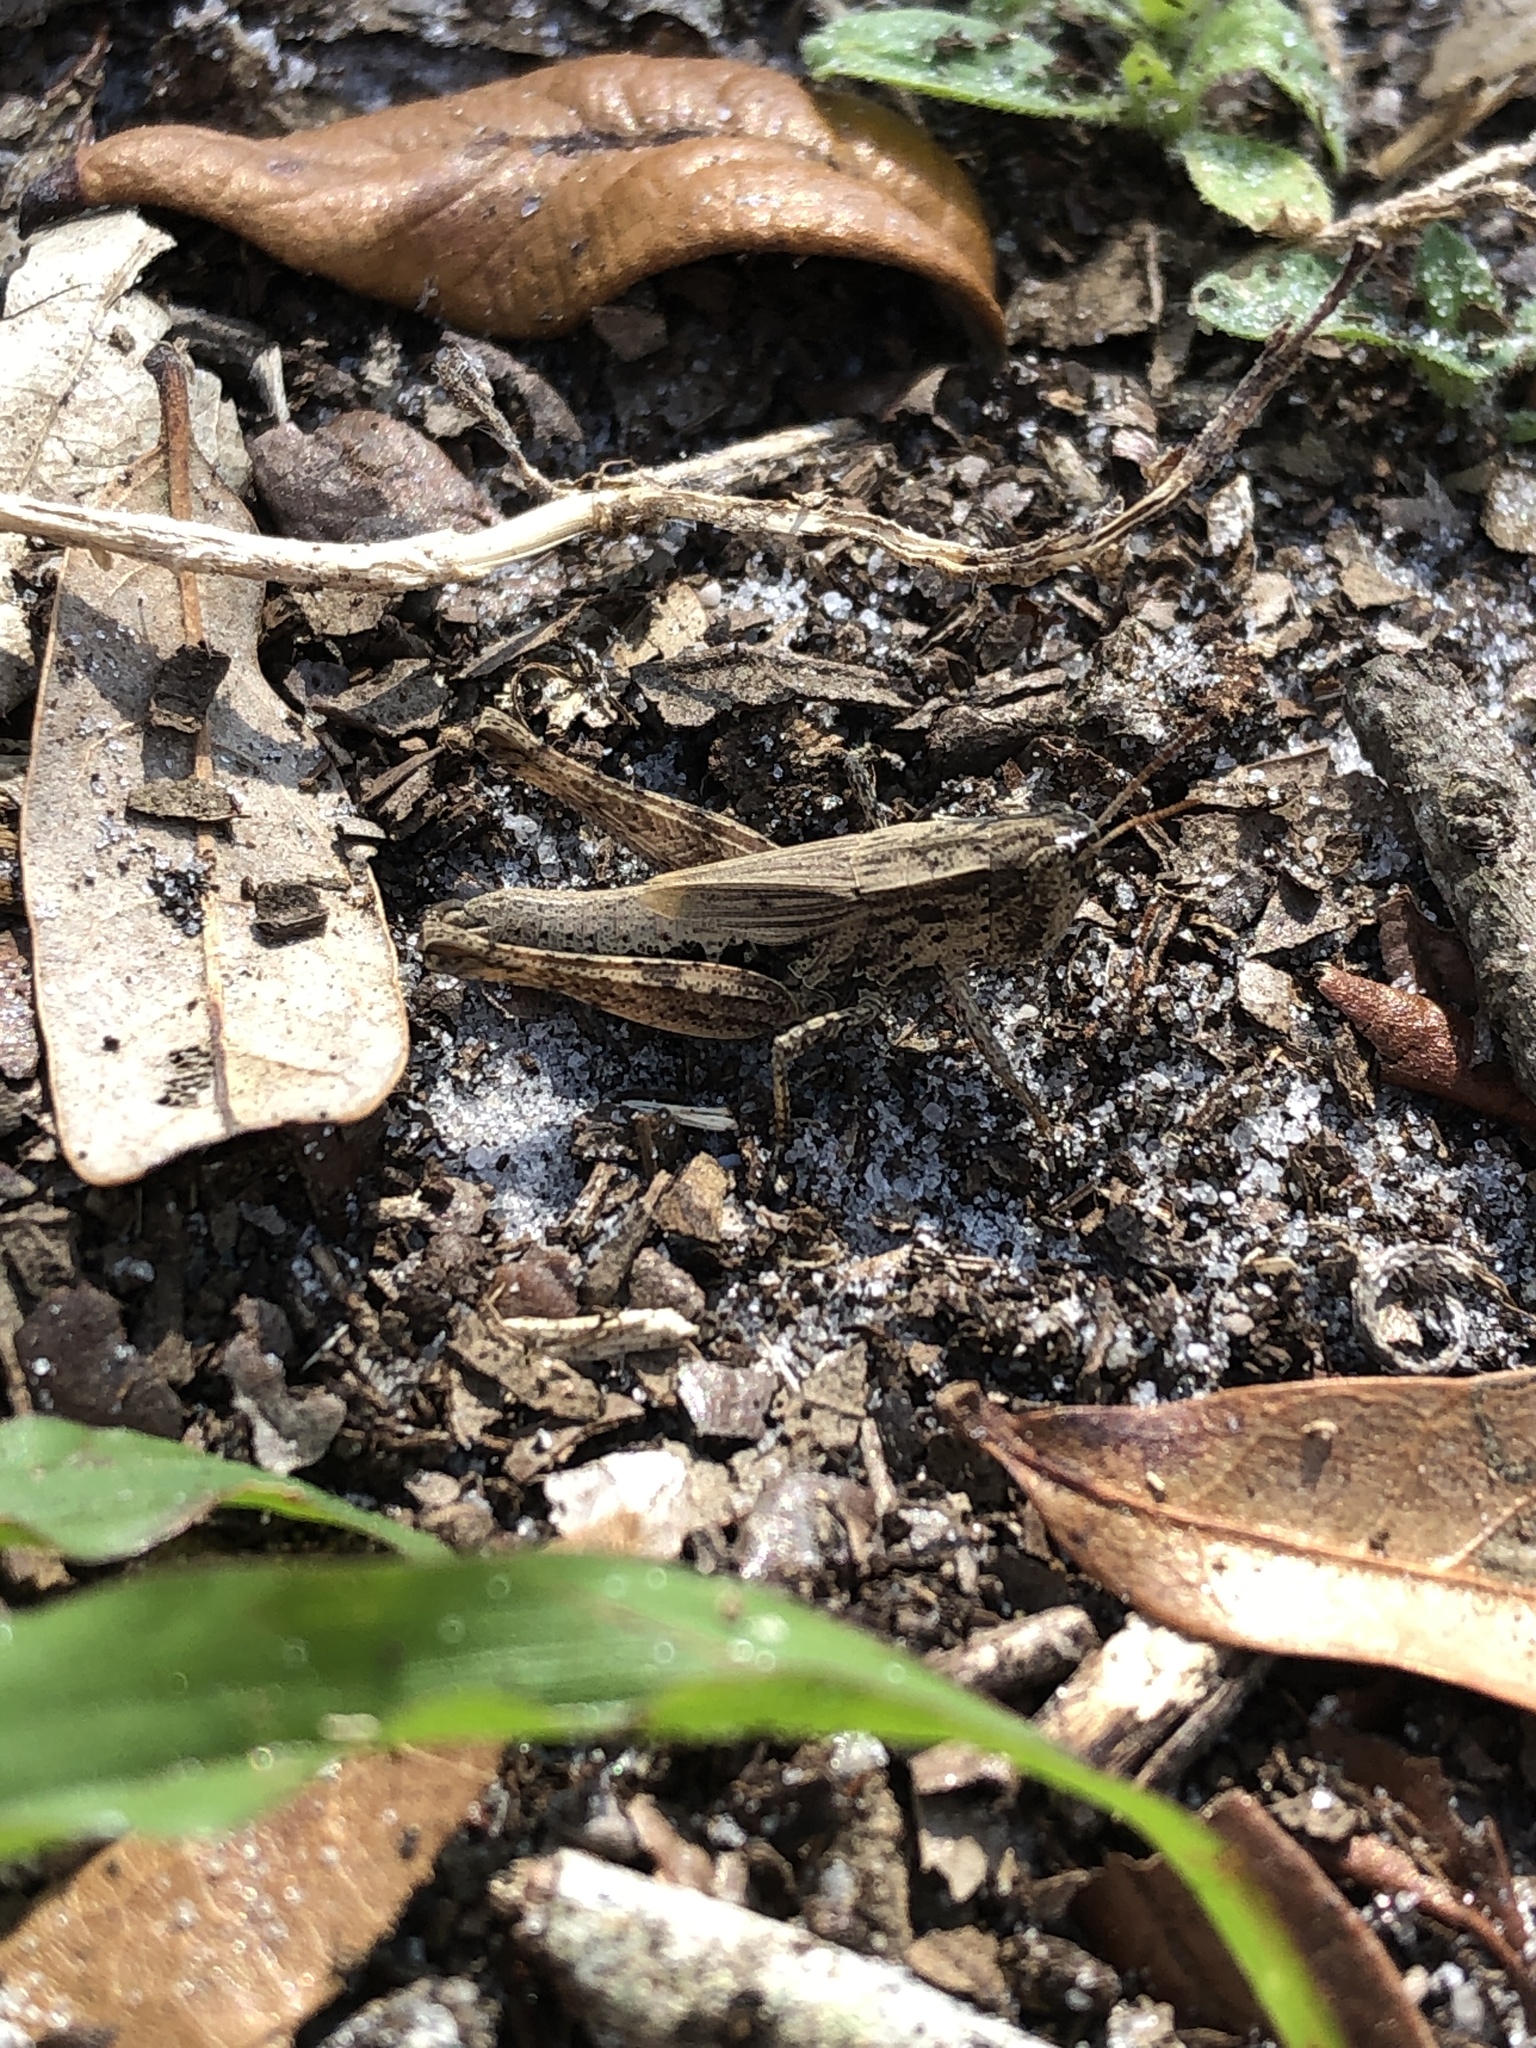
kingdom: Animalia
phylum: Arthropoda
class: Insecta
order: Orthoptera
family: Acrididae
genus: Dichromorpha
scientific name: Dichromorpha viridis
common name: Short-winged green grasshopper
